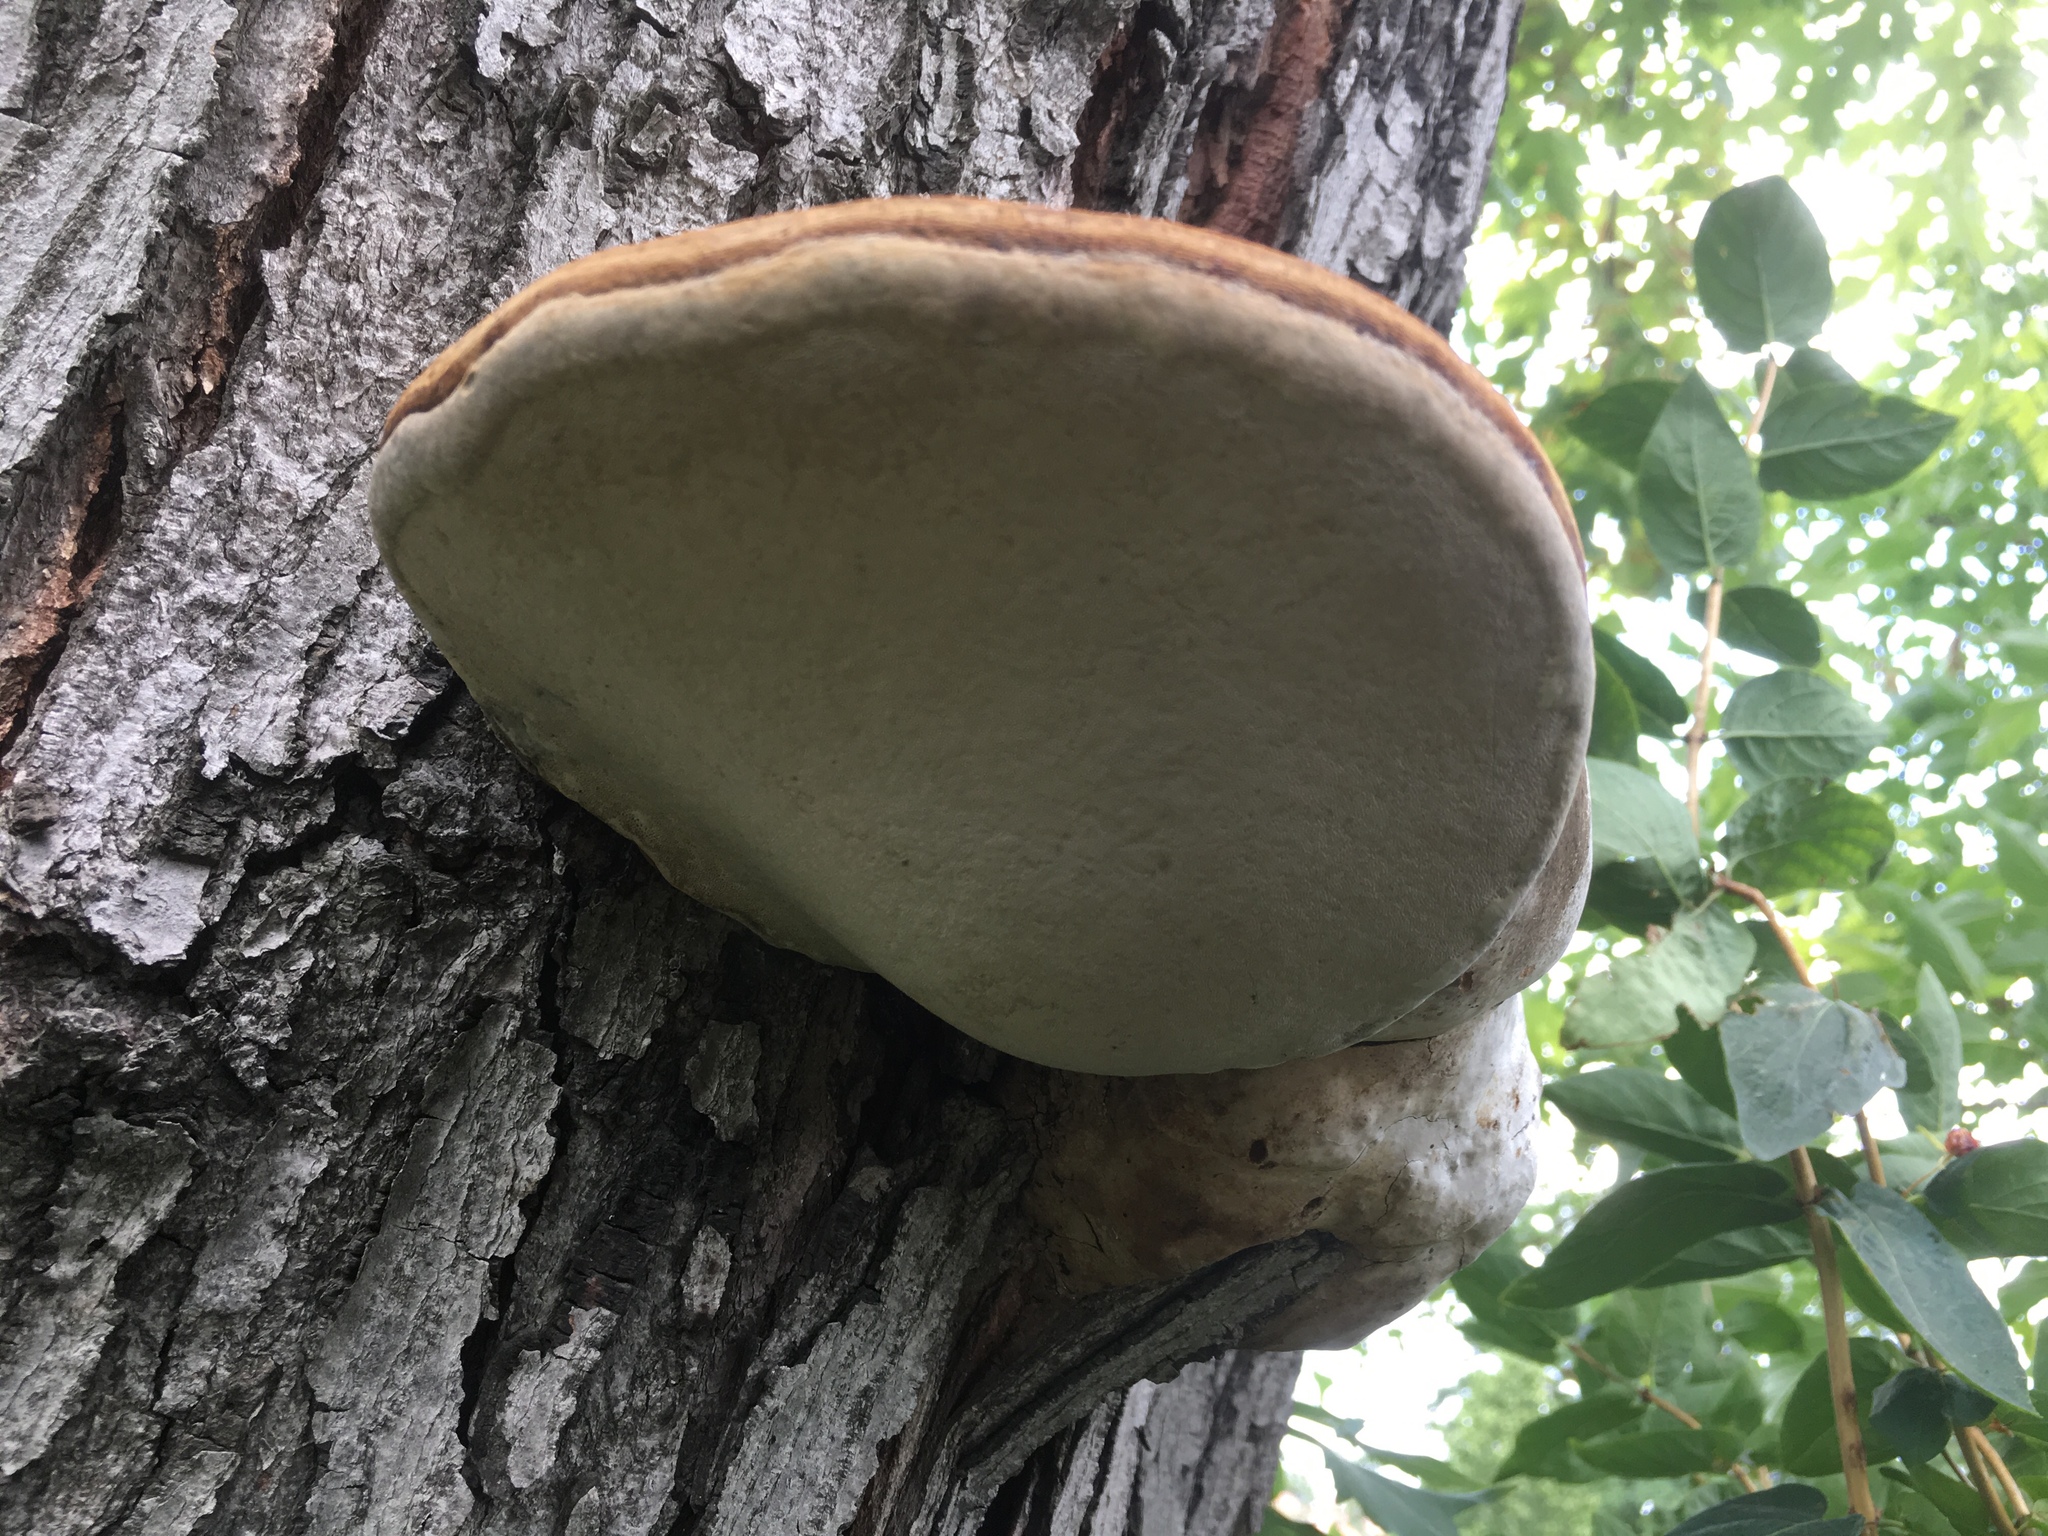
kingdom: Fungi
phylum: Basidiomycota
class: Agaricomycetes
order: Polyporales
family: Polyporaceae
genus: Fomes
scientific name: Fomes fomentarius
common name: Hoof fungus
